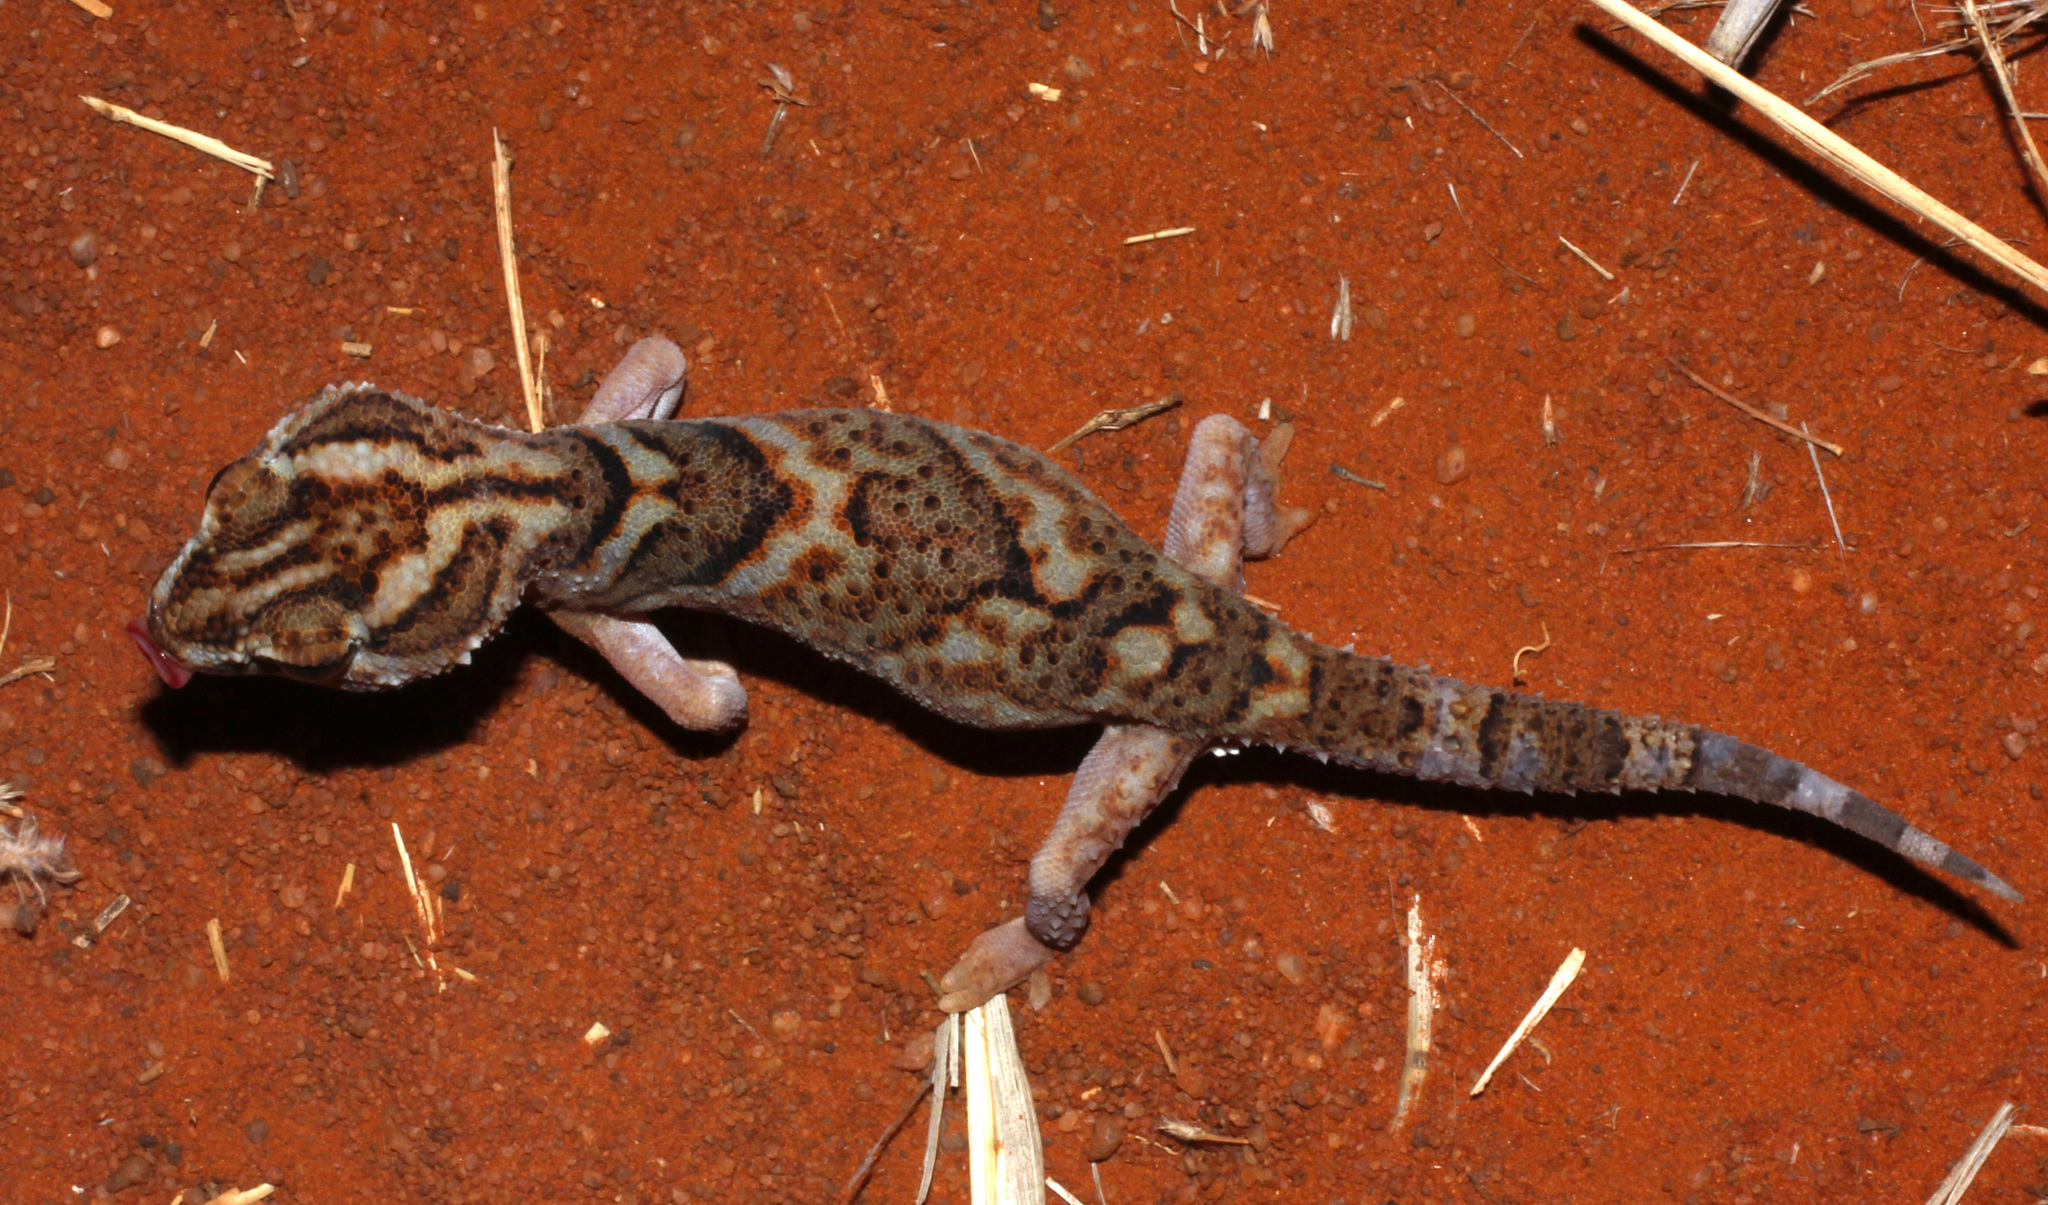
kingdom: Animalia
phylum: Chordata
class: Squamata
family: Gekkonidae
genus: Chondrodactylus
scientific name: Chondrodactylus angulifer
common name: Common giant ground gecko
